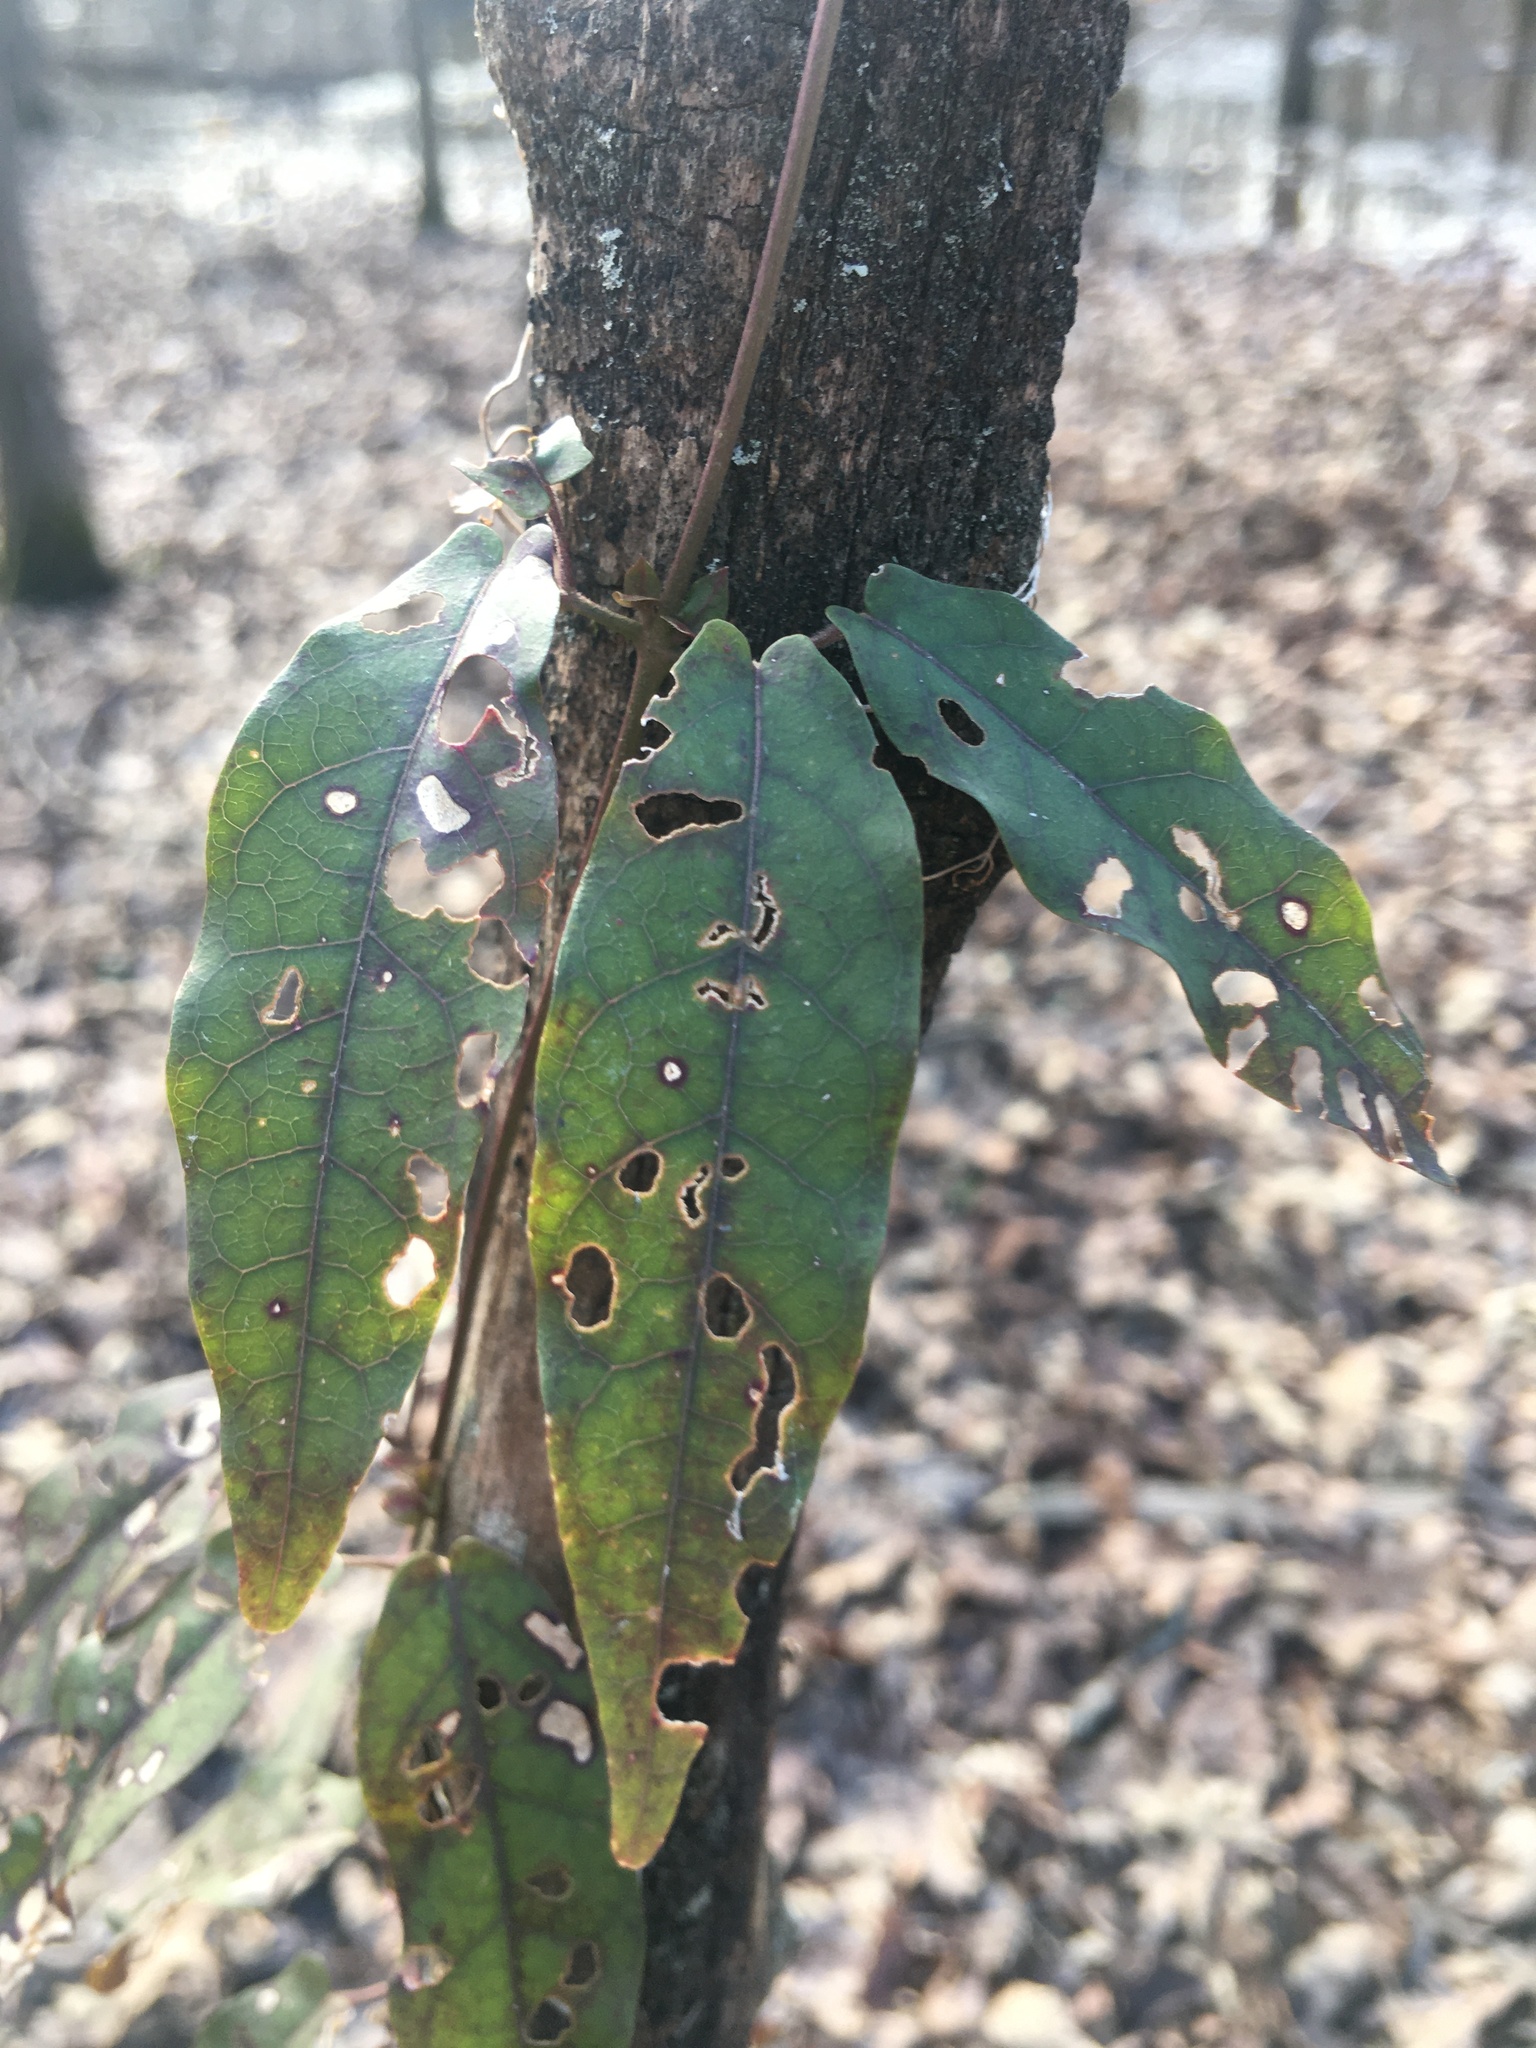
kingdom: Plantae
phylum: Tracheophyta
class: Magnoliopsida
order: Lamiales
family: Bignoniaceae
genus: Bignonia
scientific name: Bignonia capreolata
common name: Crossvine
